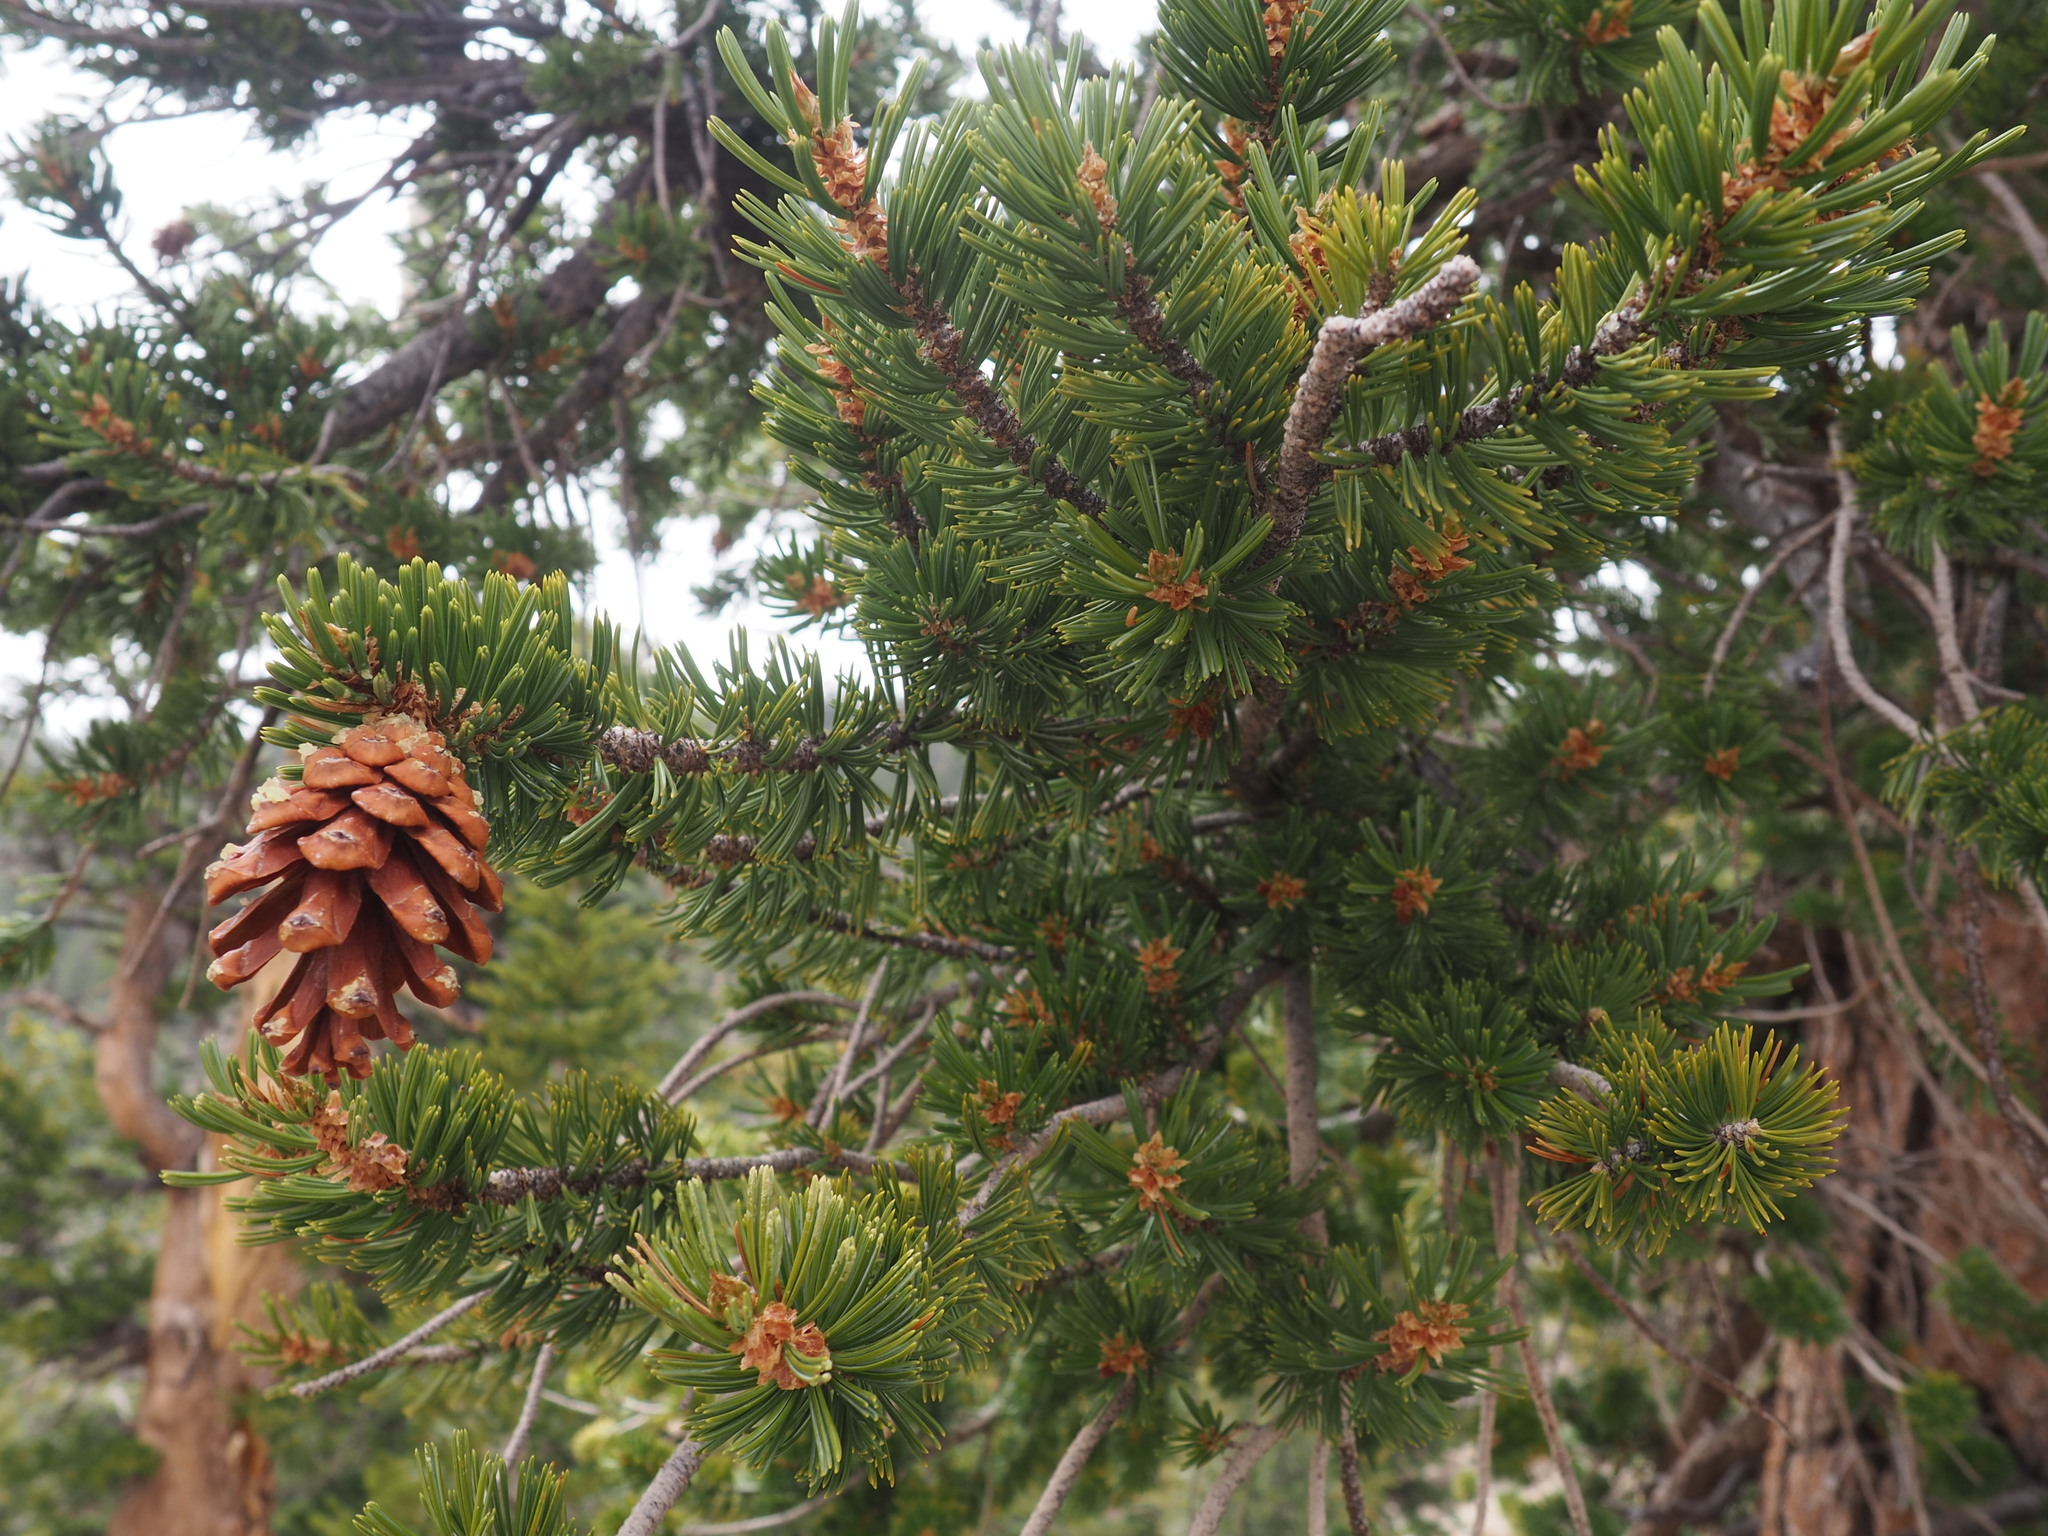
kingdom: Plantae
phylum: Tracheophyta
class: Pinopsida
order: Pinales
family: Pinaceae
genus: Pinus
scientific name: Pinus balfouriana
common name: Foxtail pine
